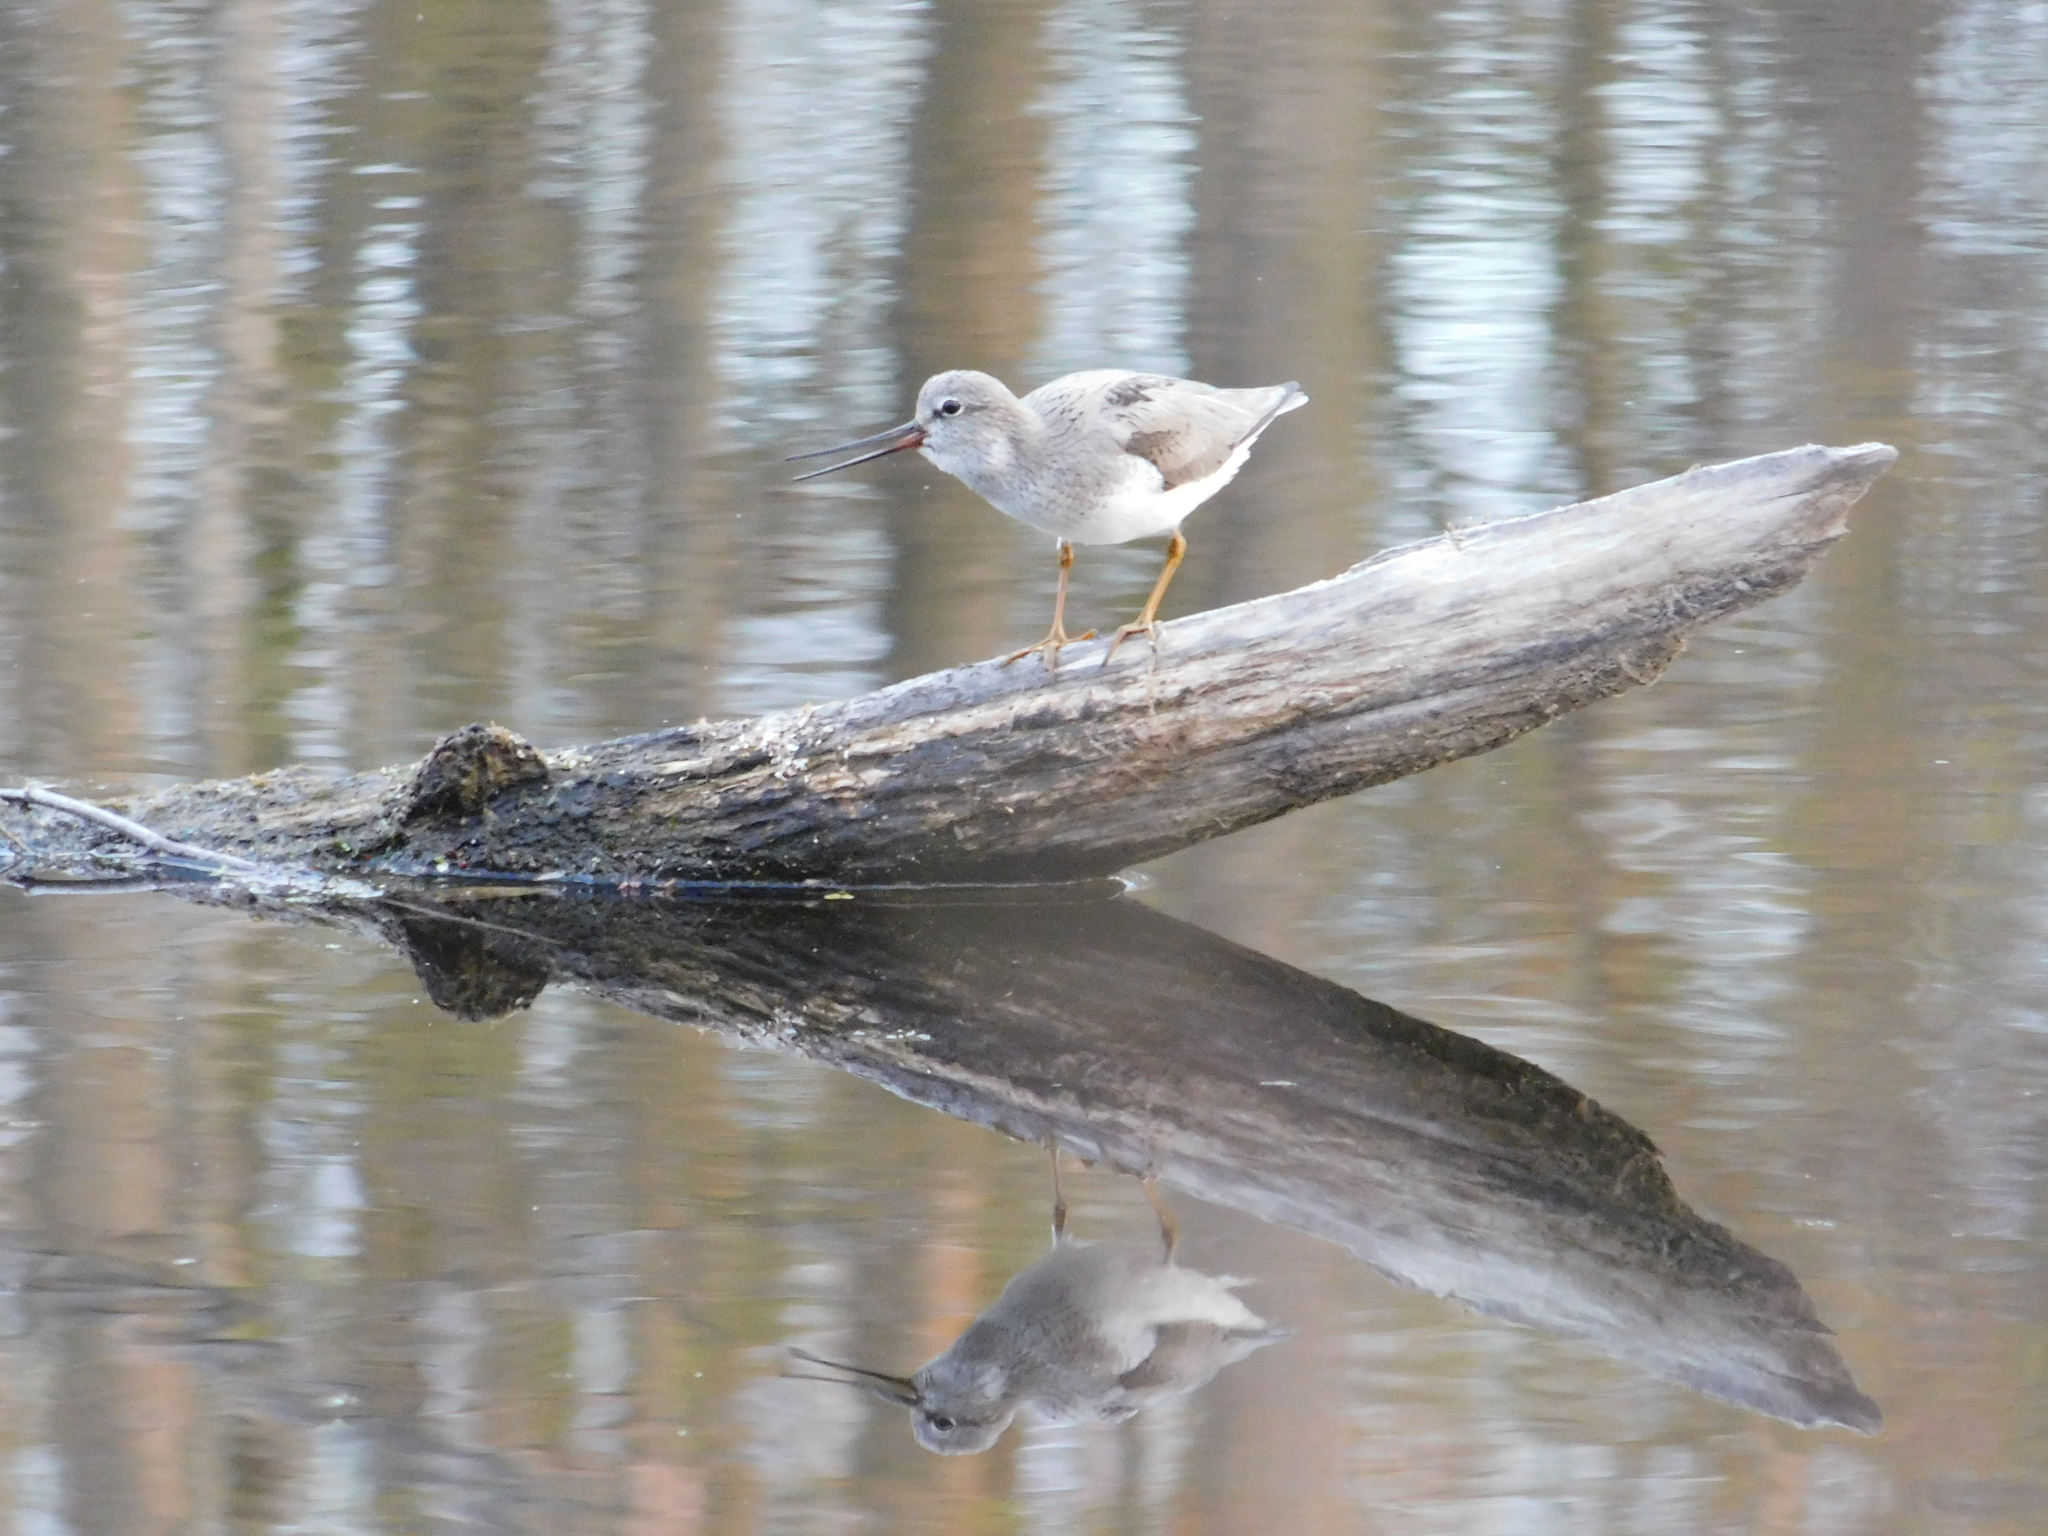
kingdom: Animalia
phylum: Chordata
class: Aves
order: Charadriiformes
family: Scolopacidae
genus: Xenus
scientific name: Xenus cinereus
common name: Terek sandpiper
